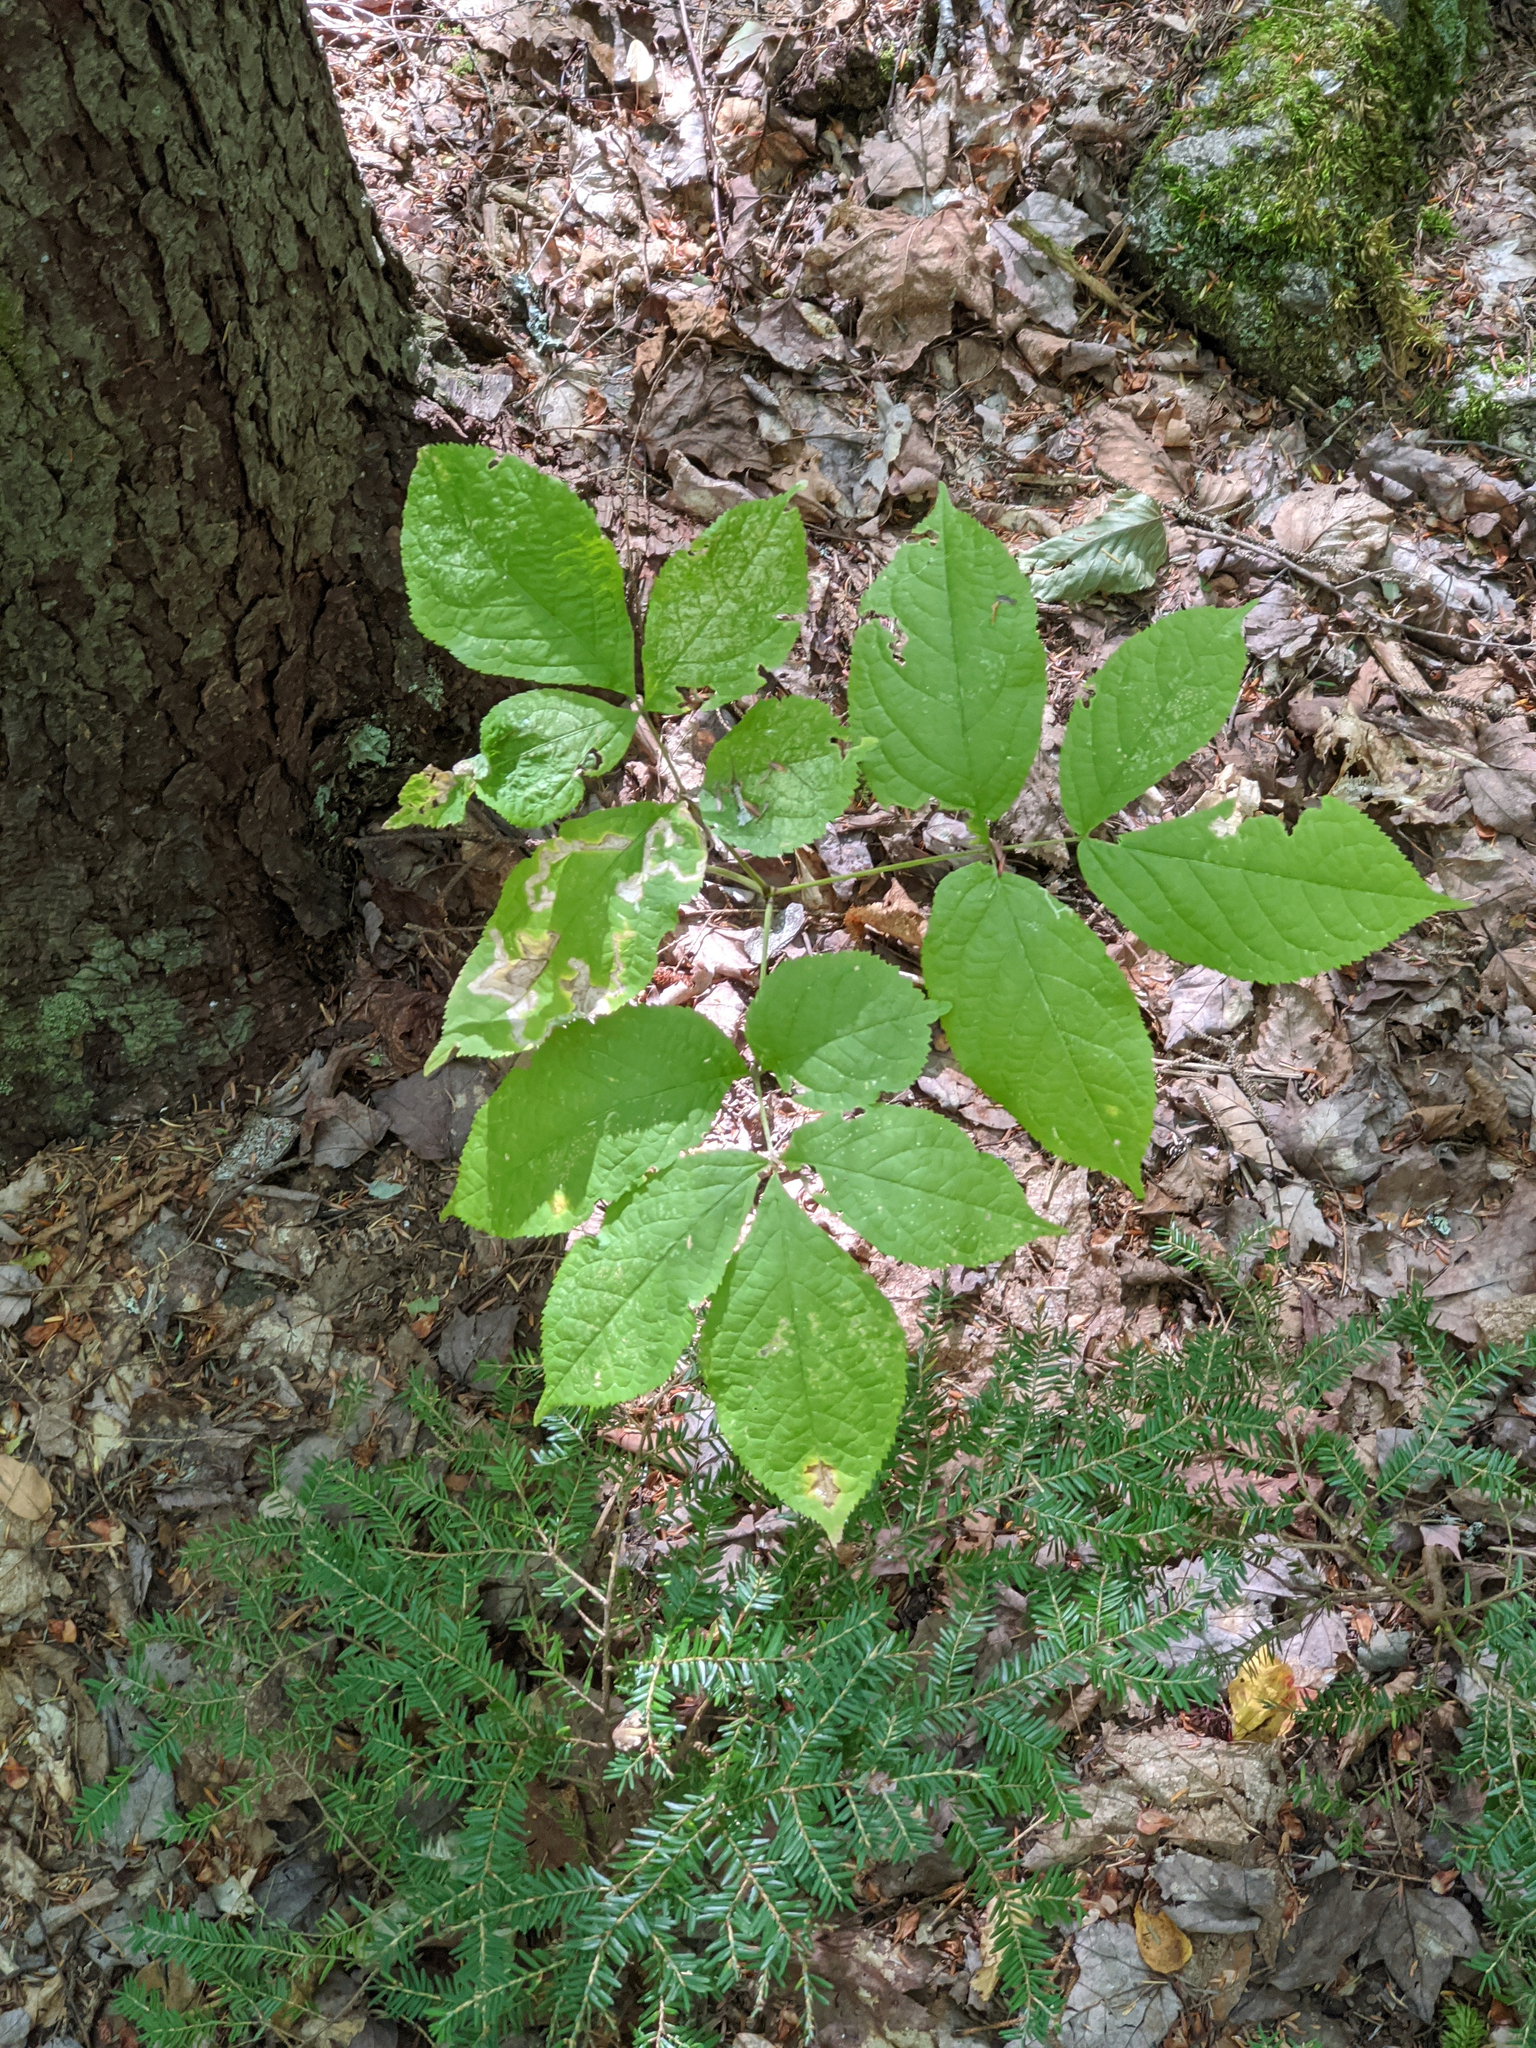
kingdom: Plantae
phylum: Tracheophyta
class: Magnoliopsida
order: Apiales
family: Araliaceae
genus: Aralia
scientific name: Aralia nudicaulis
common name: Wild sarsaparilla
